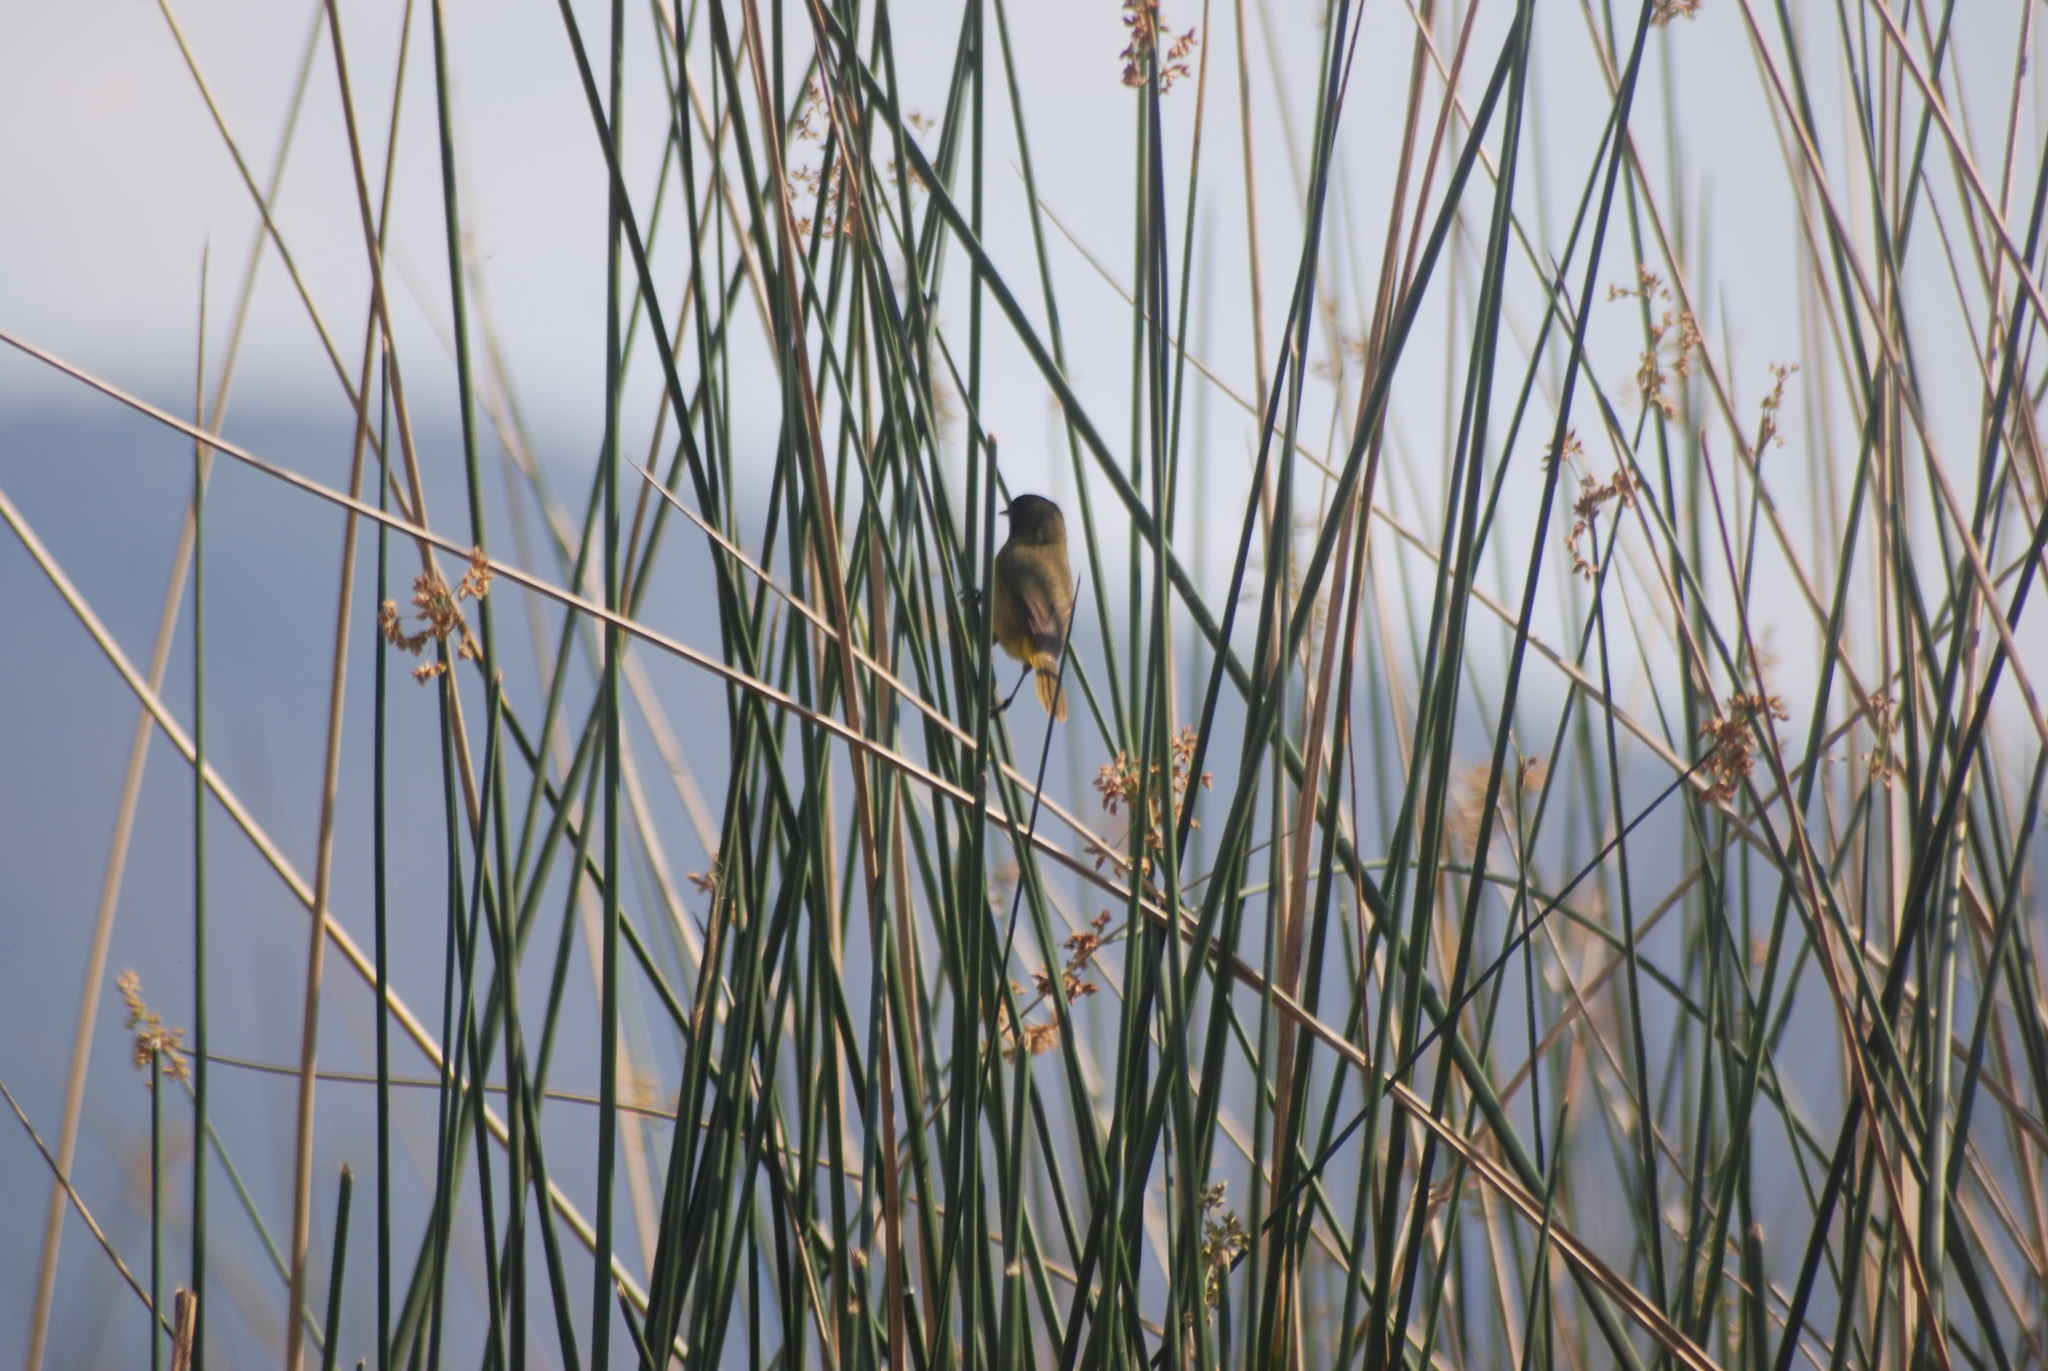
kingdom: Animalia
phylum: Chordata
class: Aves
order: Passeriformes
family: Parulidae
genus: Geothlypis
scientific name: Geothlypis speciosa
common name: Black-polled yellowthroat
